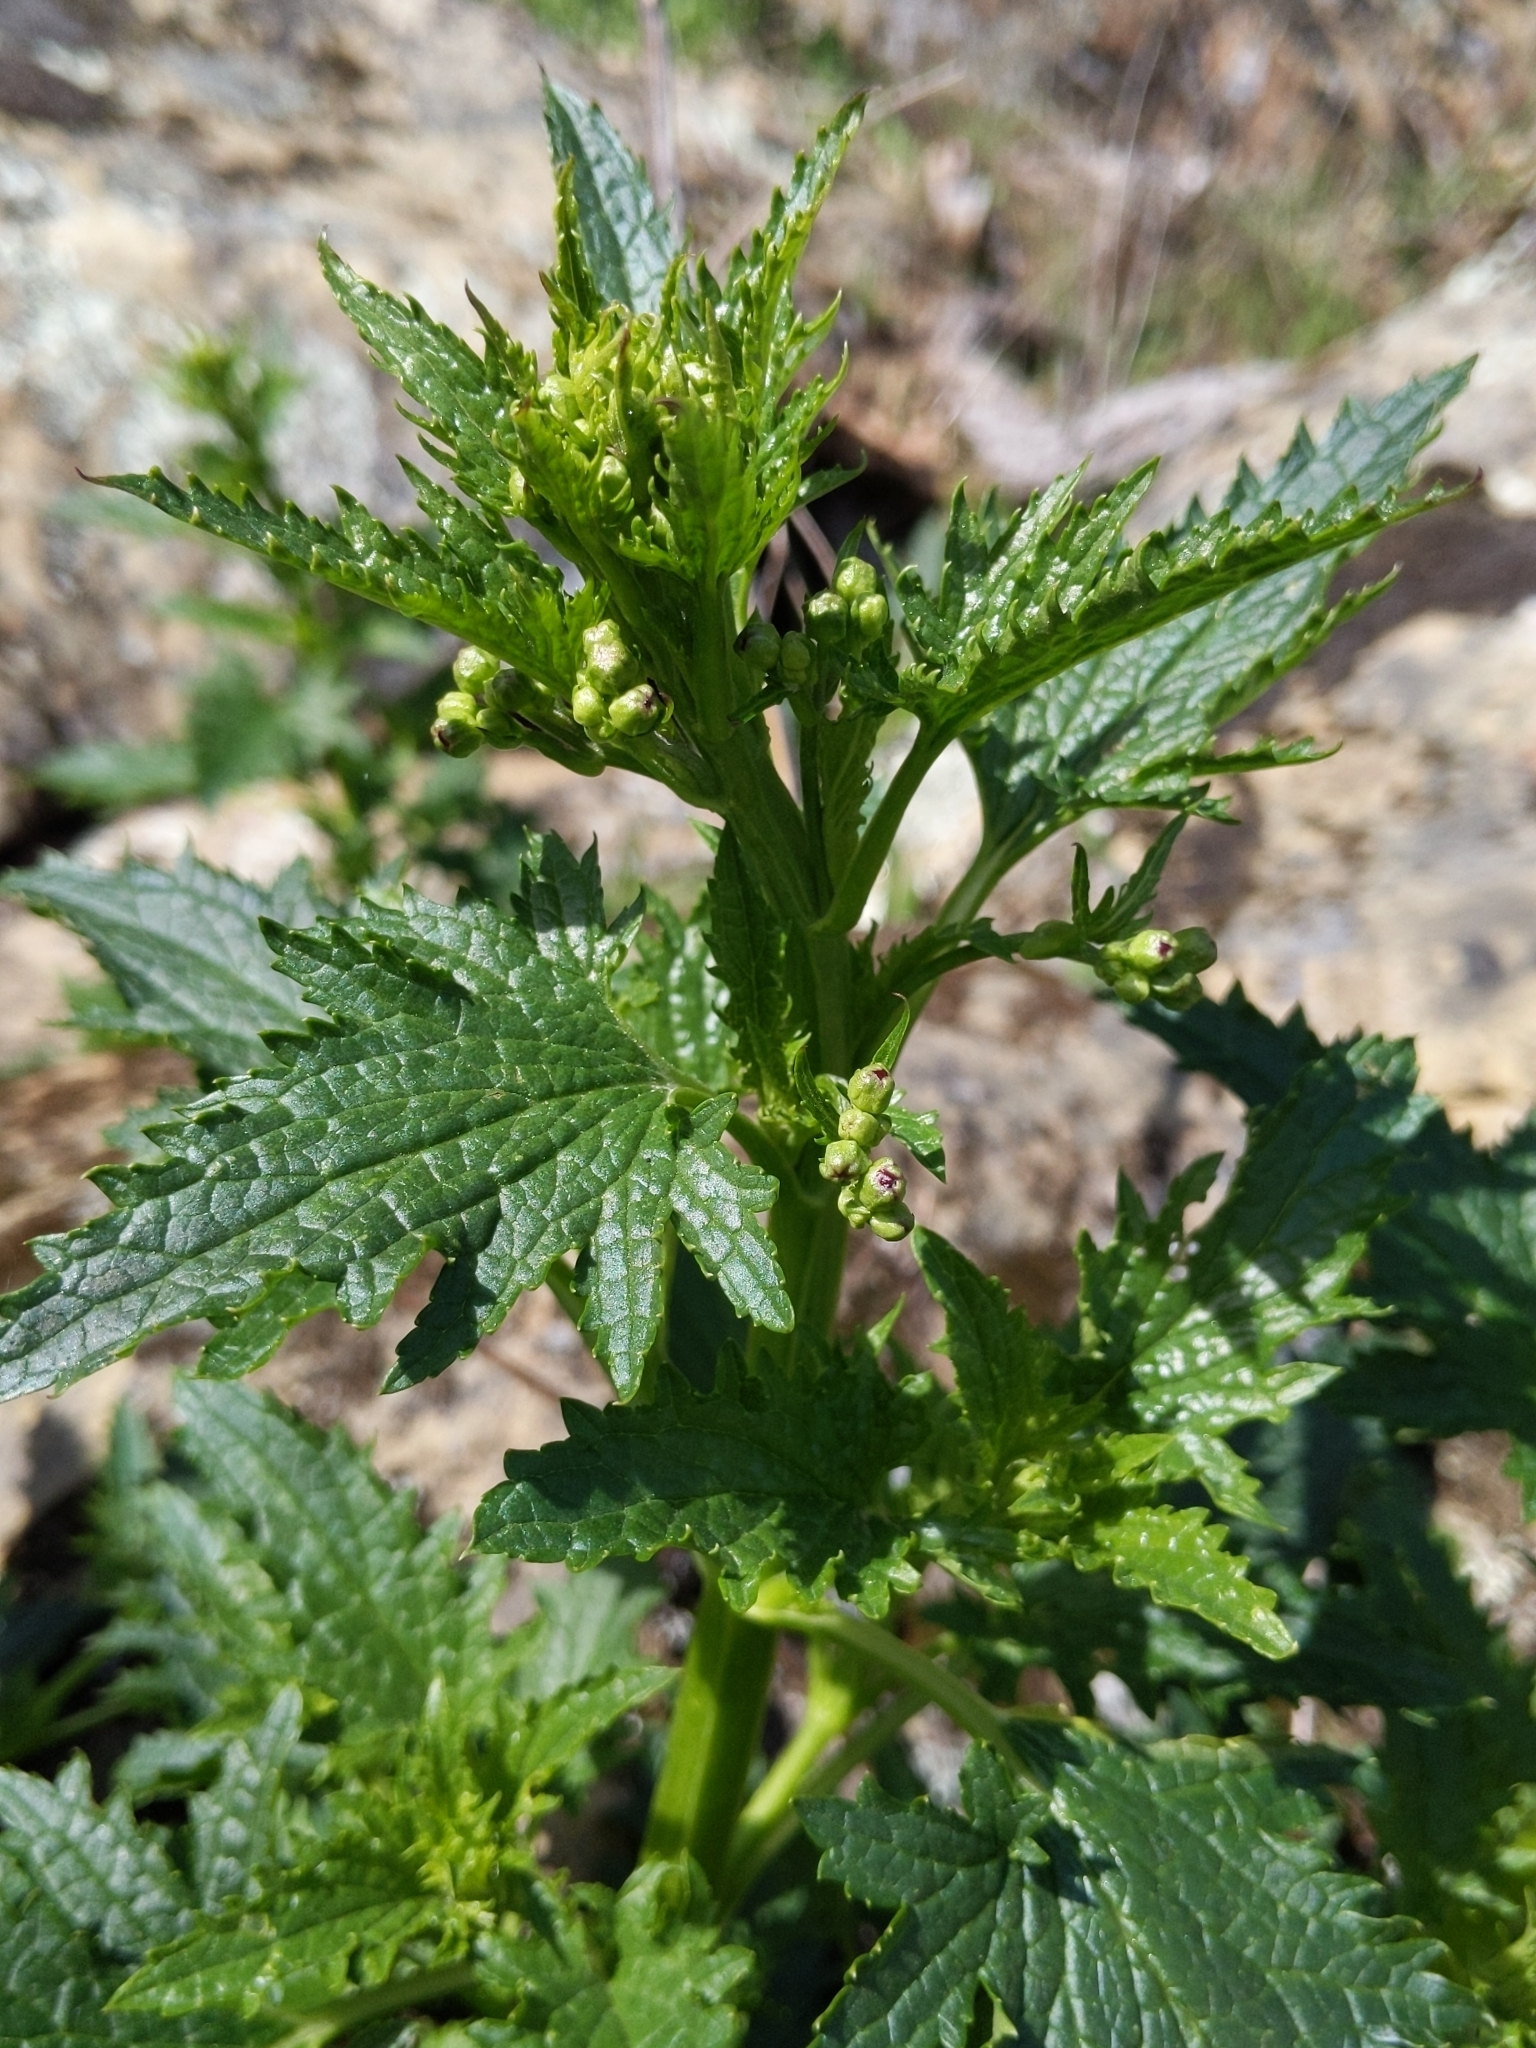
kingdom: Plantae
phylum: Tracheophyta
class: Magnoliopsida
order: Lamiales
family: Scrophulariaceae
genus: Scrophularia
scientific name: Scrophularia californica
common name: California figwort
